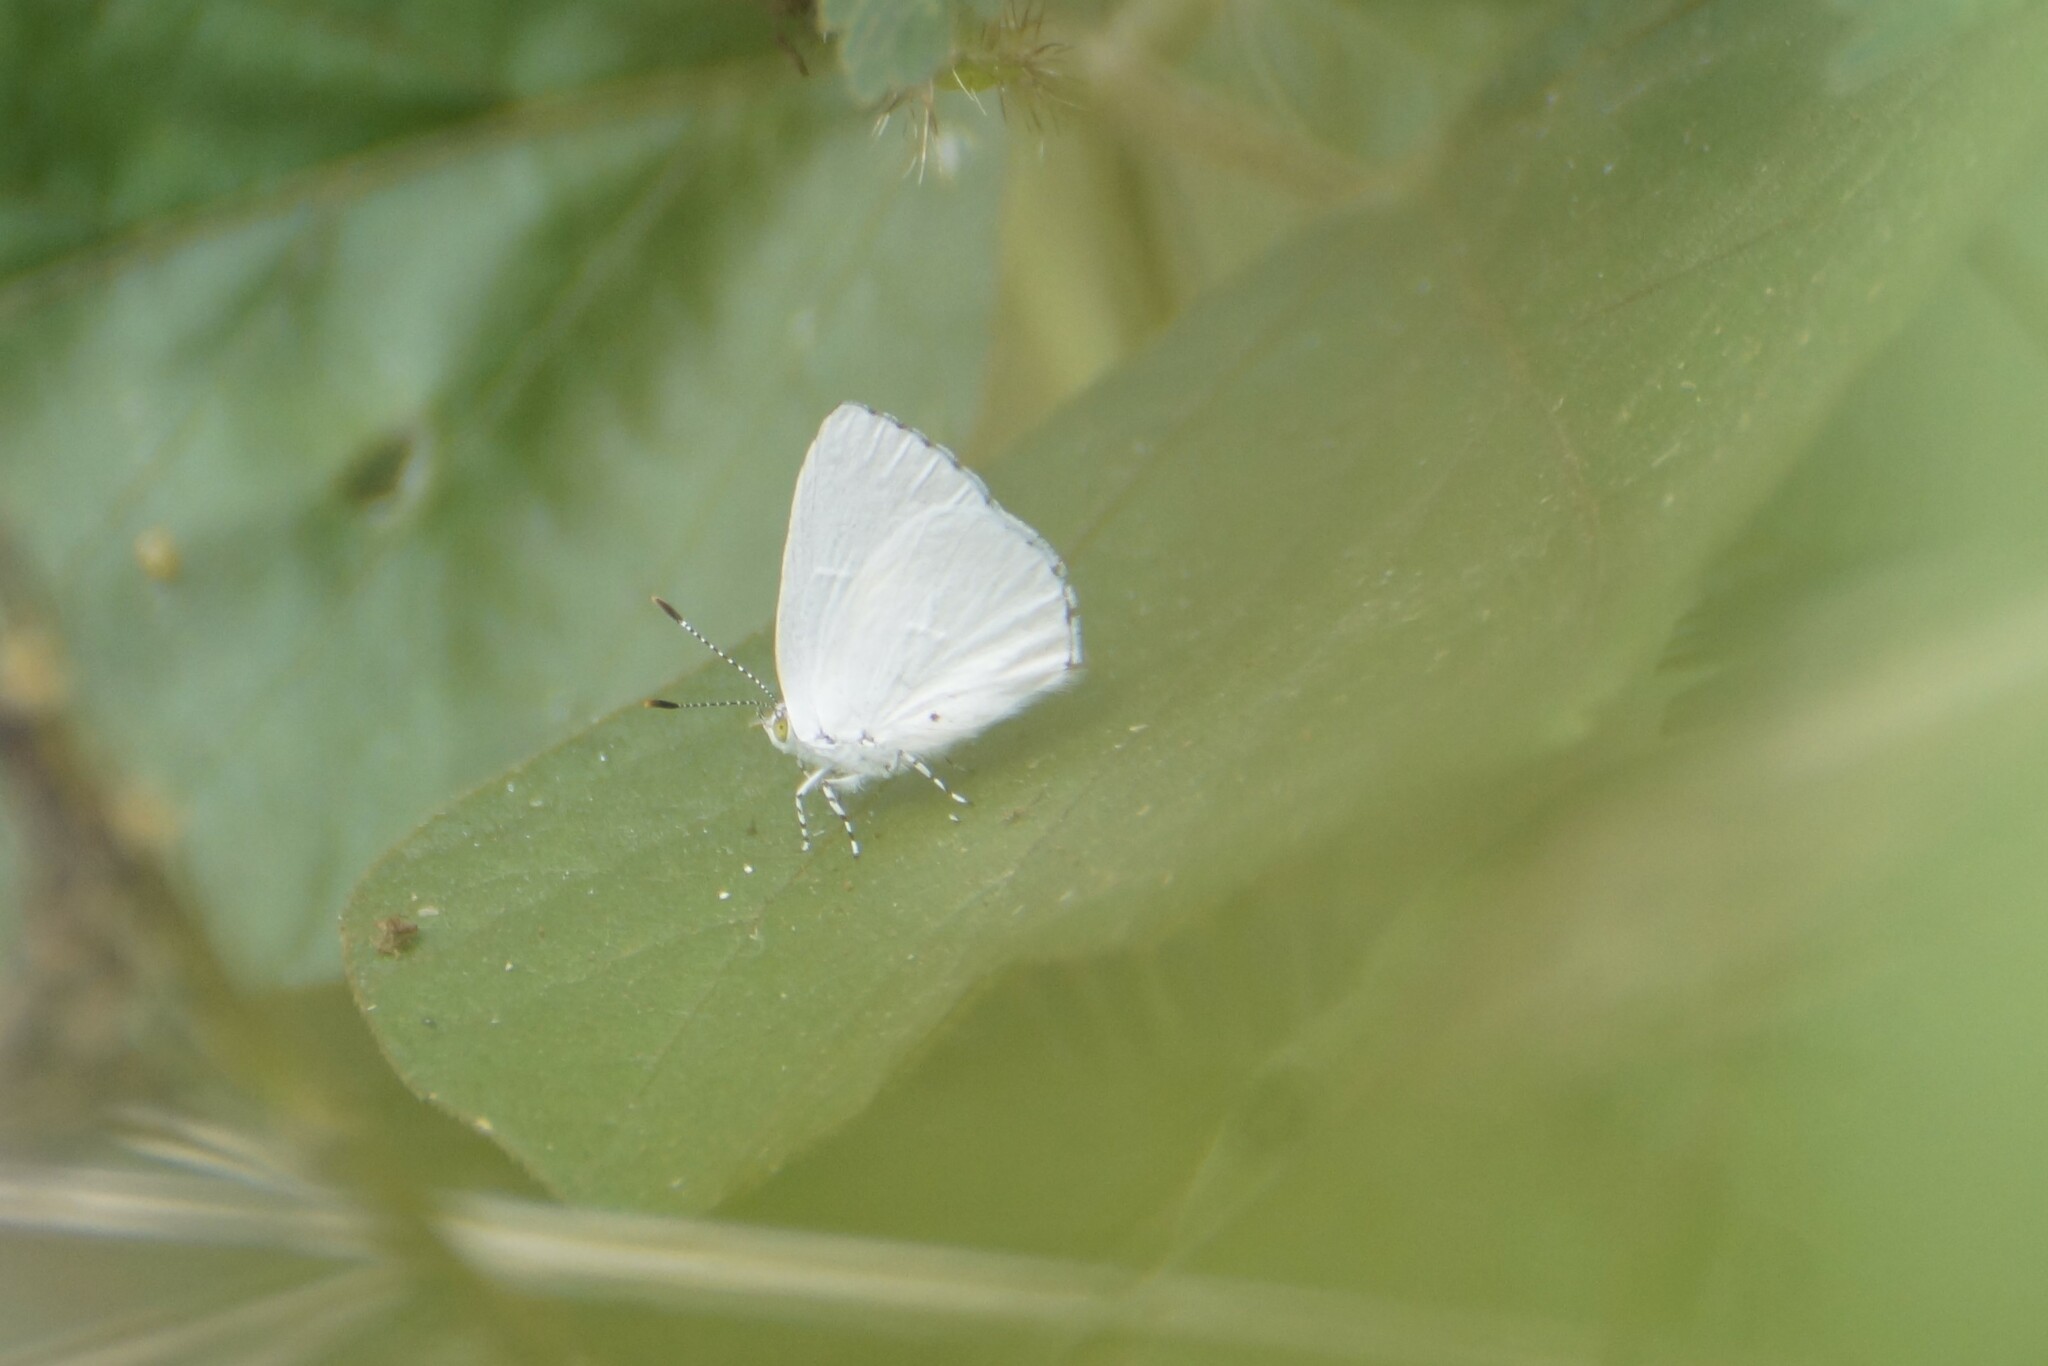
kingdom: Animalia
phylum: Arthropoda
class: Insecta
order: Lepidoptera
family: Lycaenidae
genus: Philiris
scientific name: Philiris innotatus
